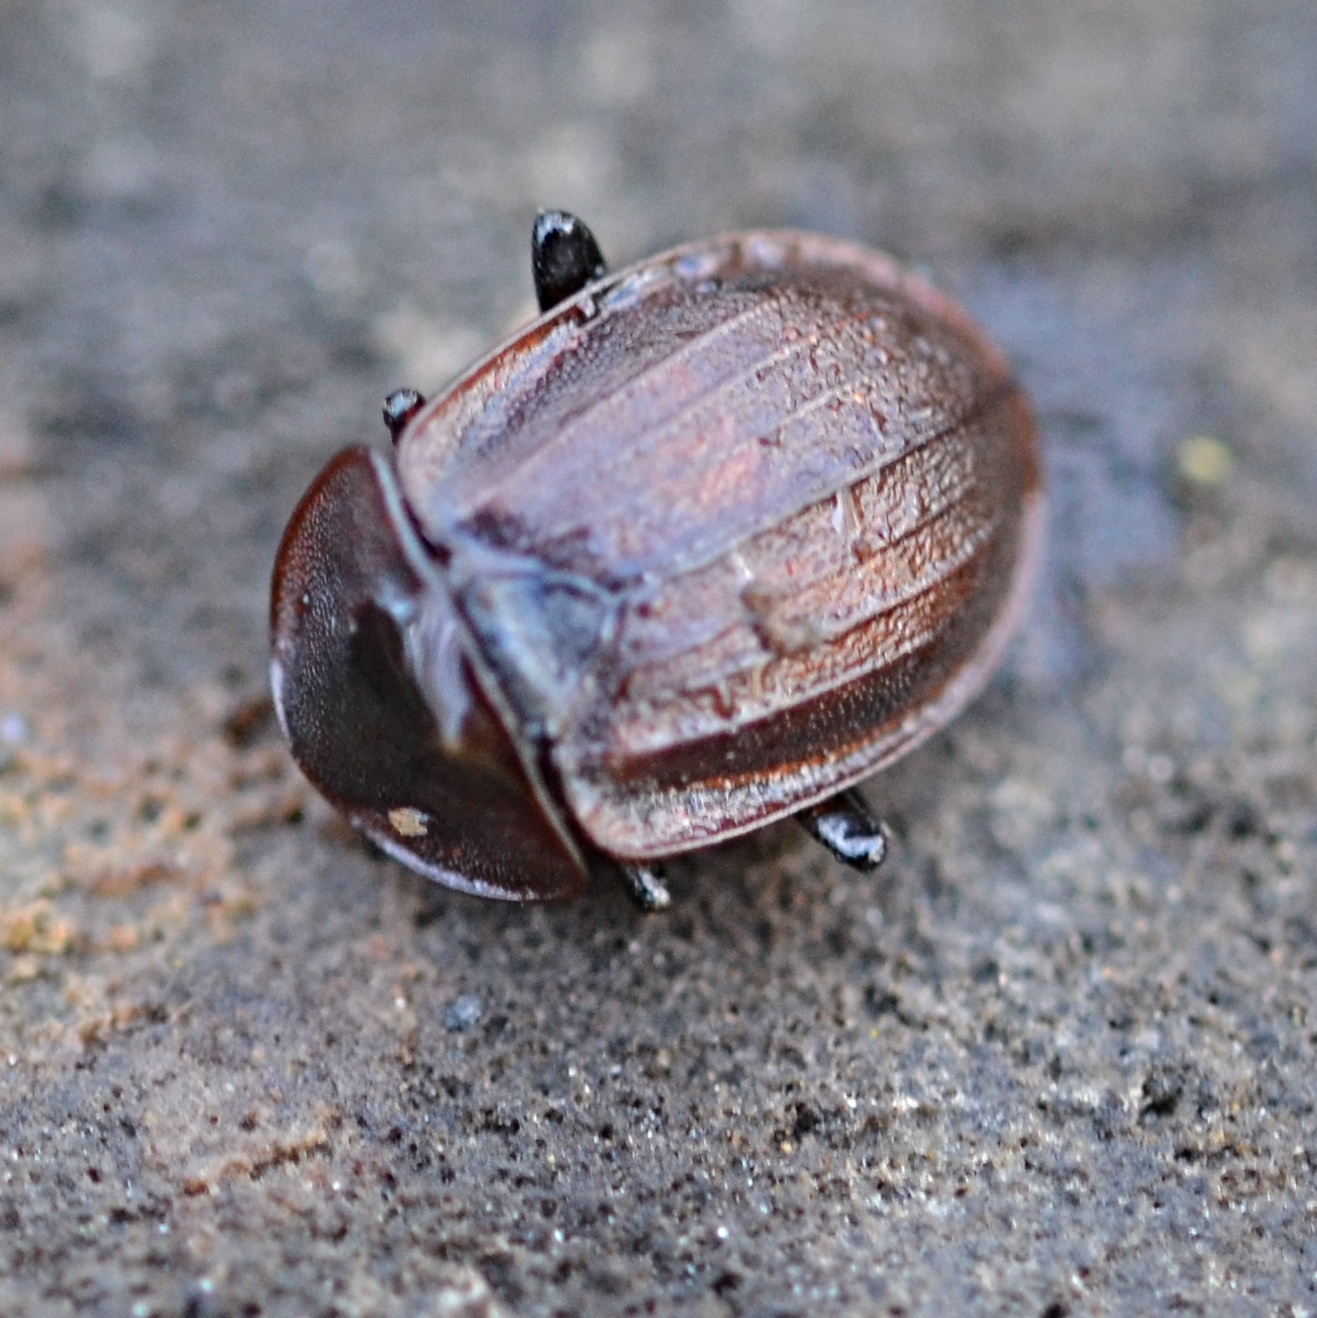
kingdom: Animalia
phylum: Arthropoda
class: Insecta
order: Coleoptera
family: Staphylinidae
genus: Silpha
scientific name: Silpha atrata
